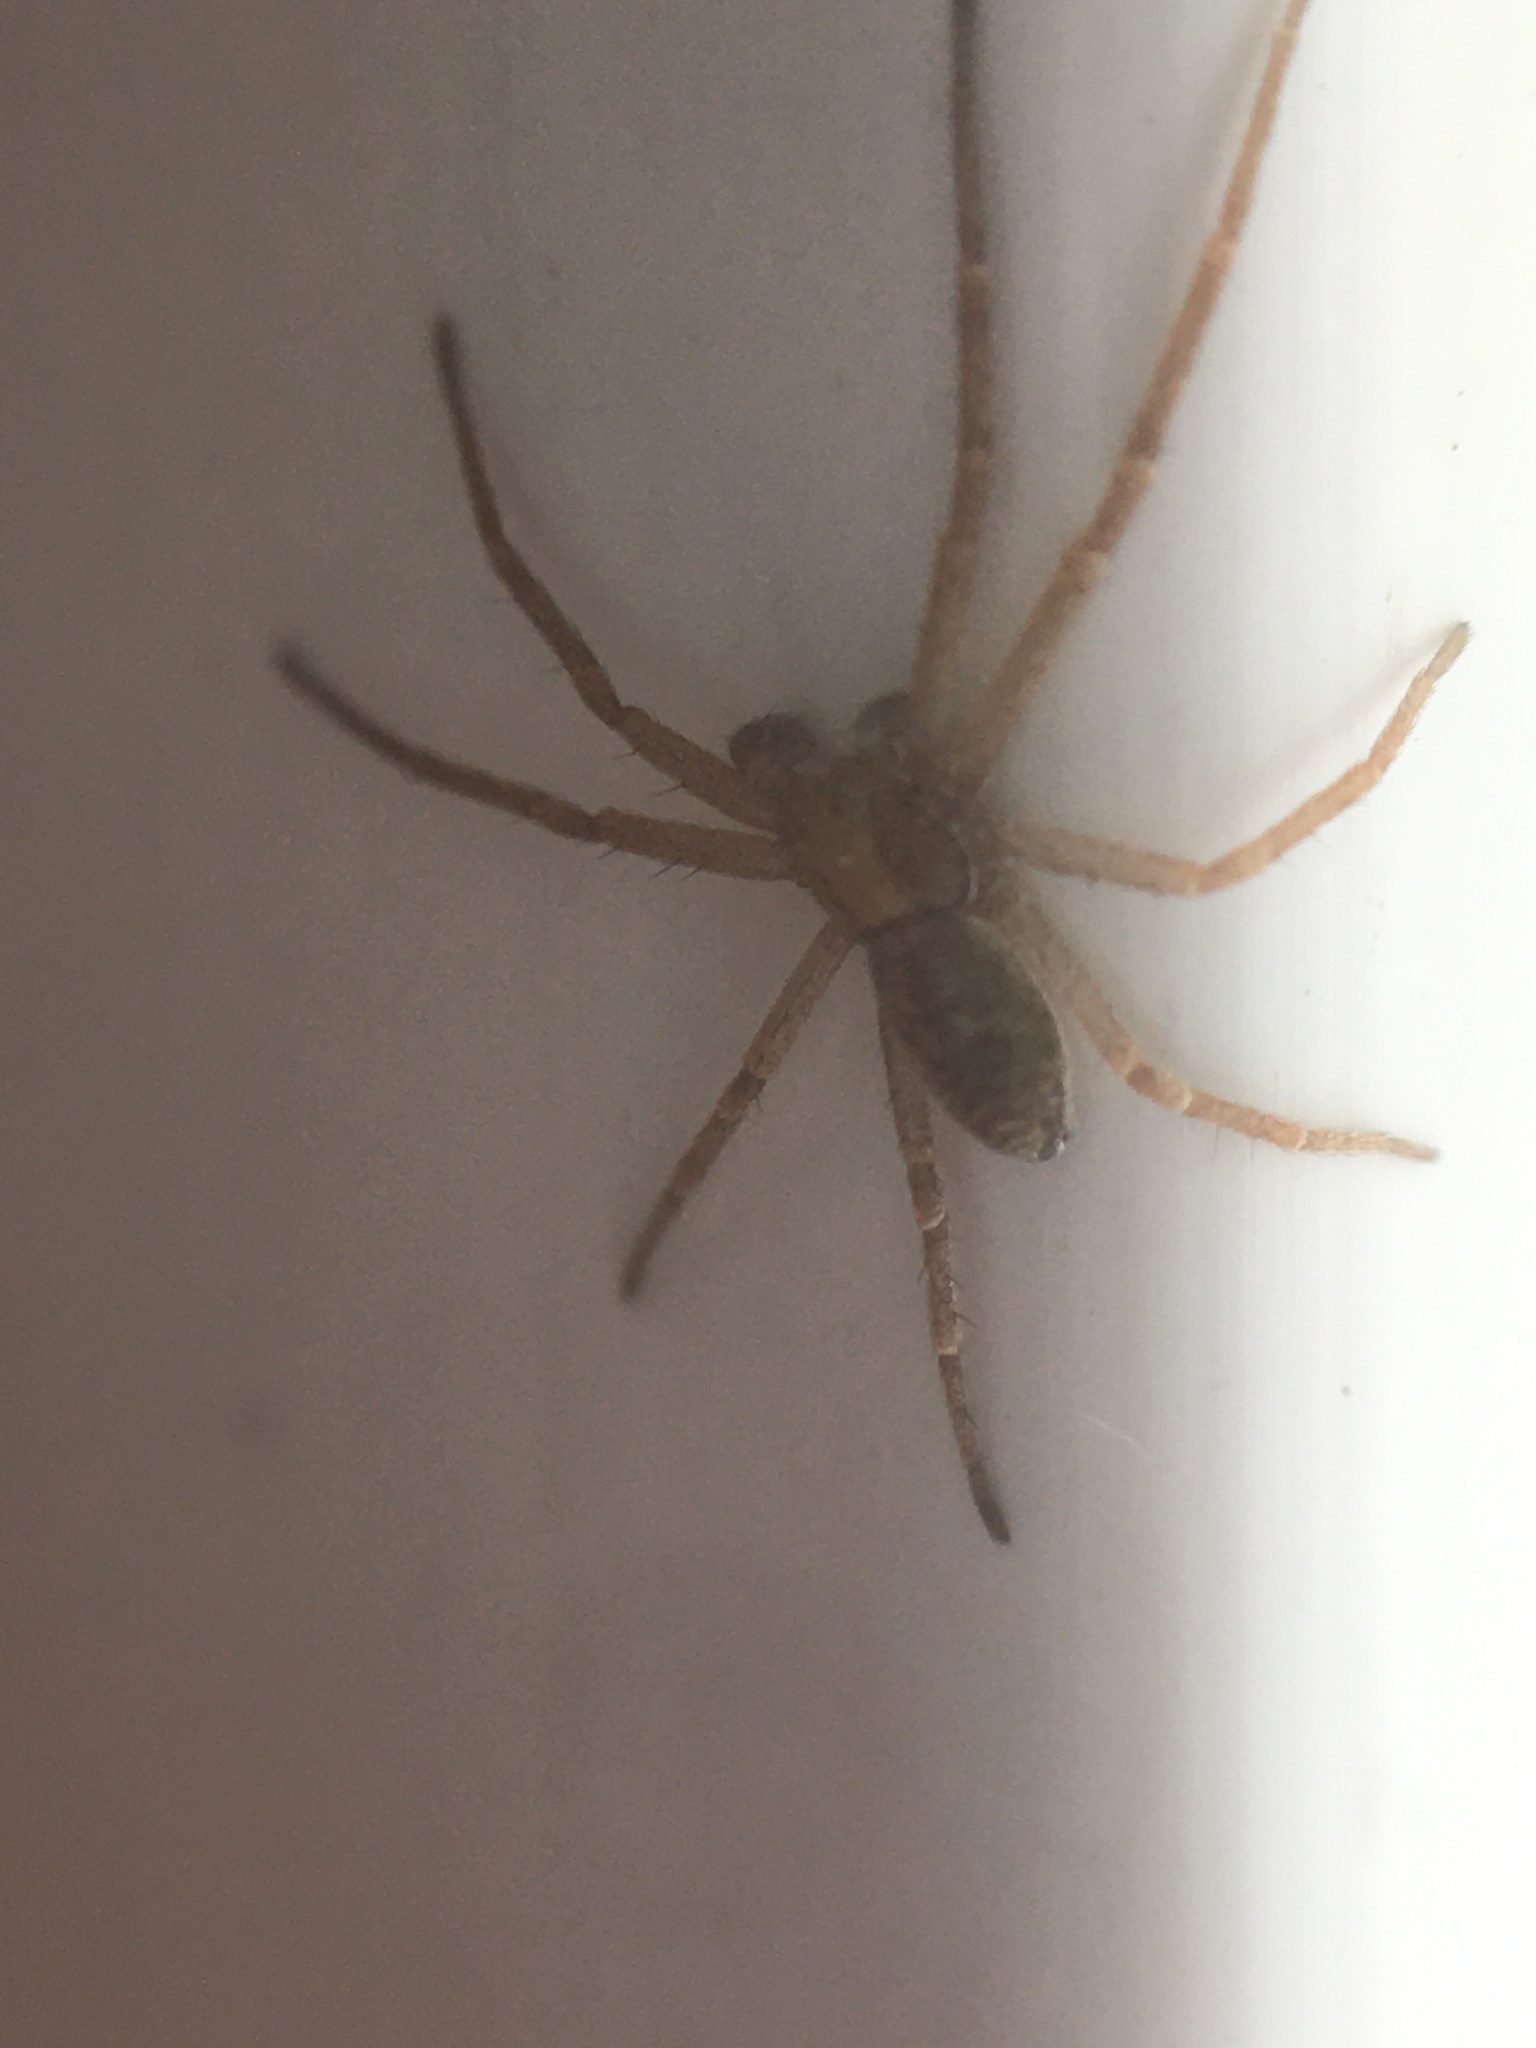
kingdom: Animalia
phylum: Arthropoda
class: Arachnida
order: Araneae
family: Philodromidae
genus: Philodromus
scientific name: Philodromus
